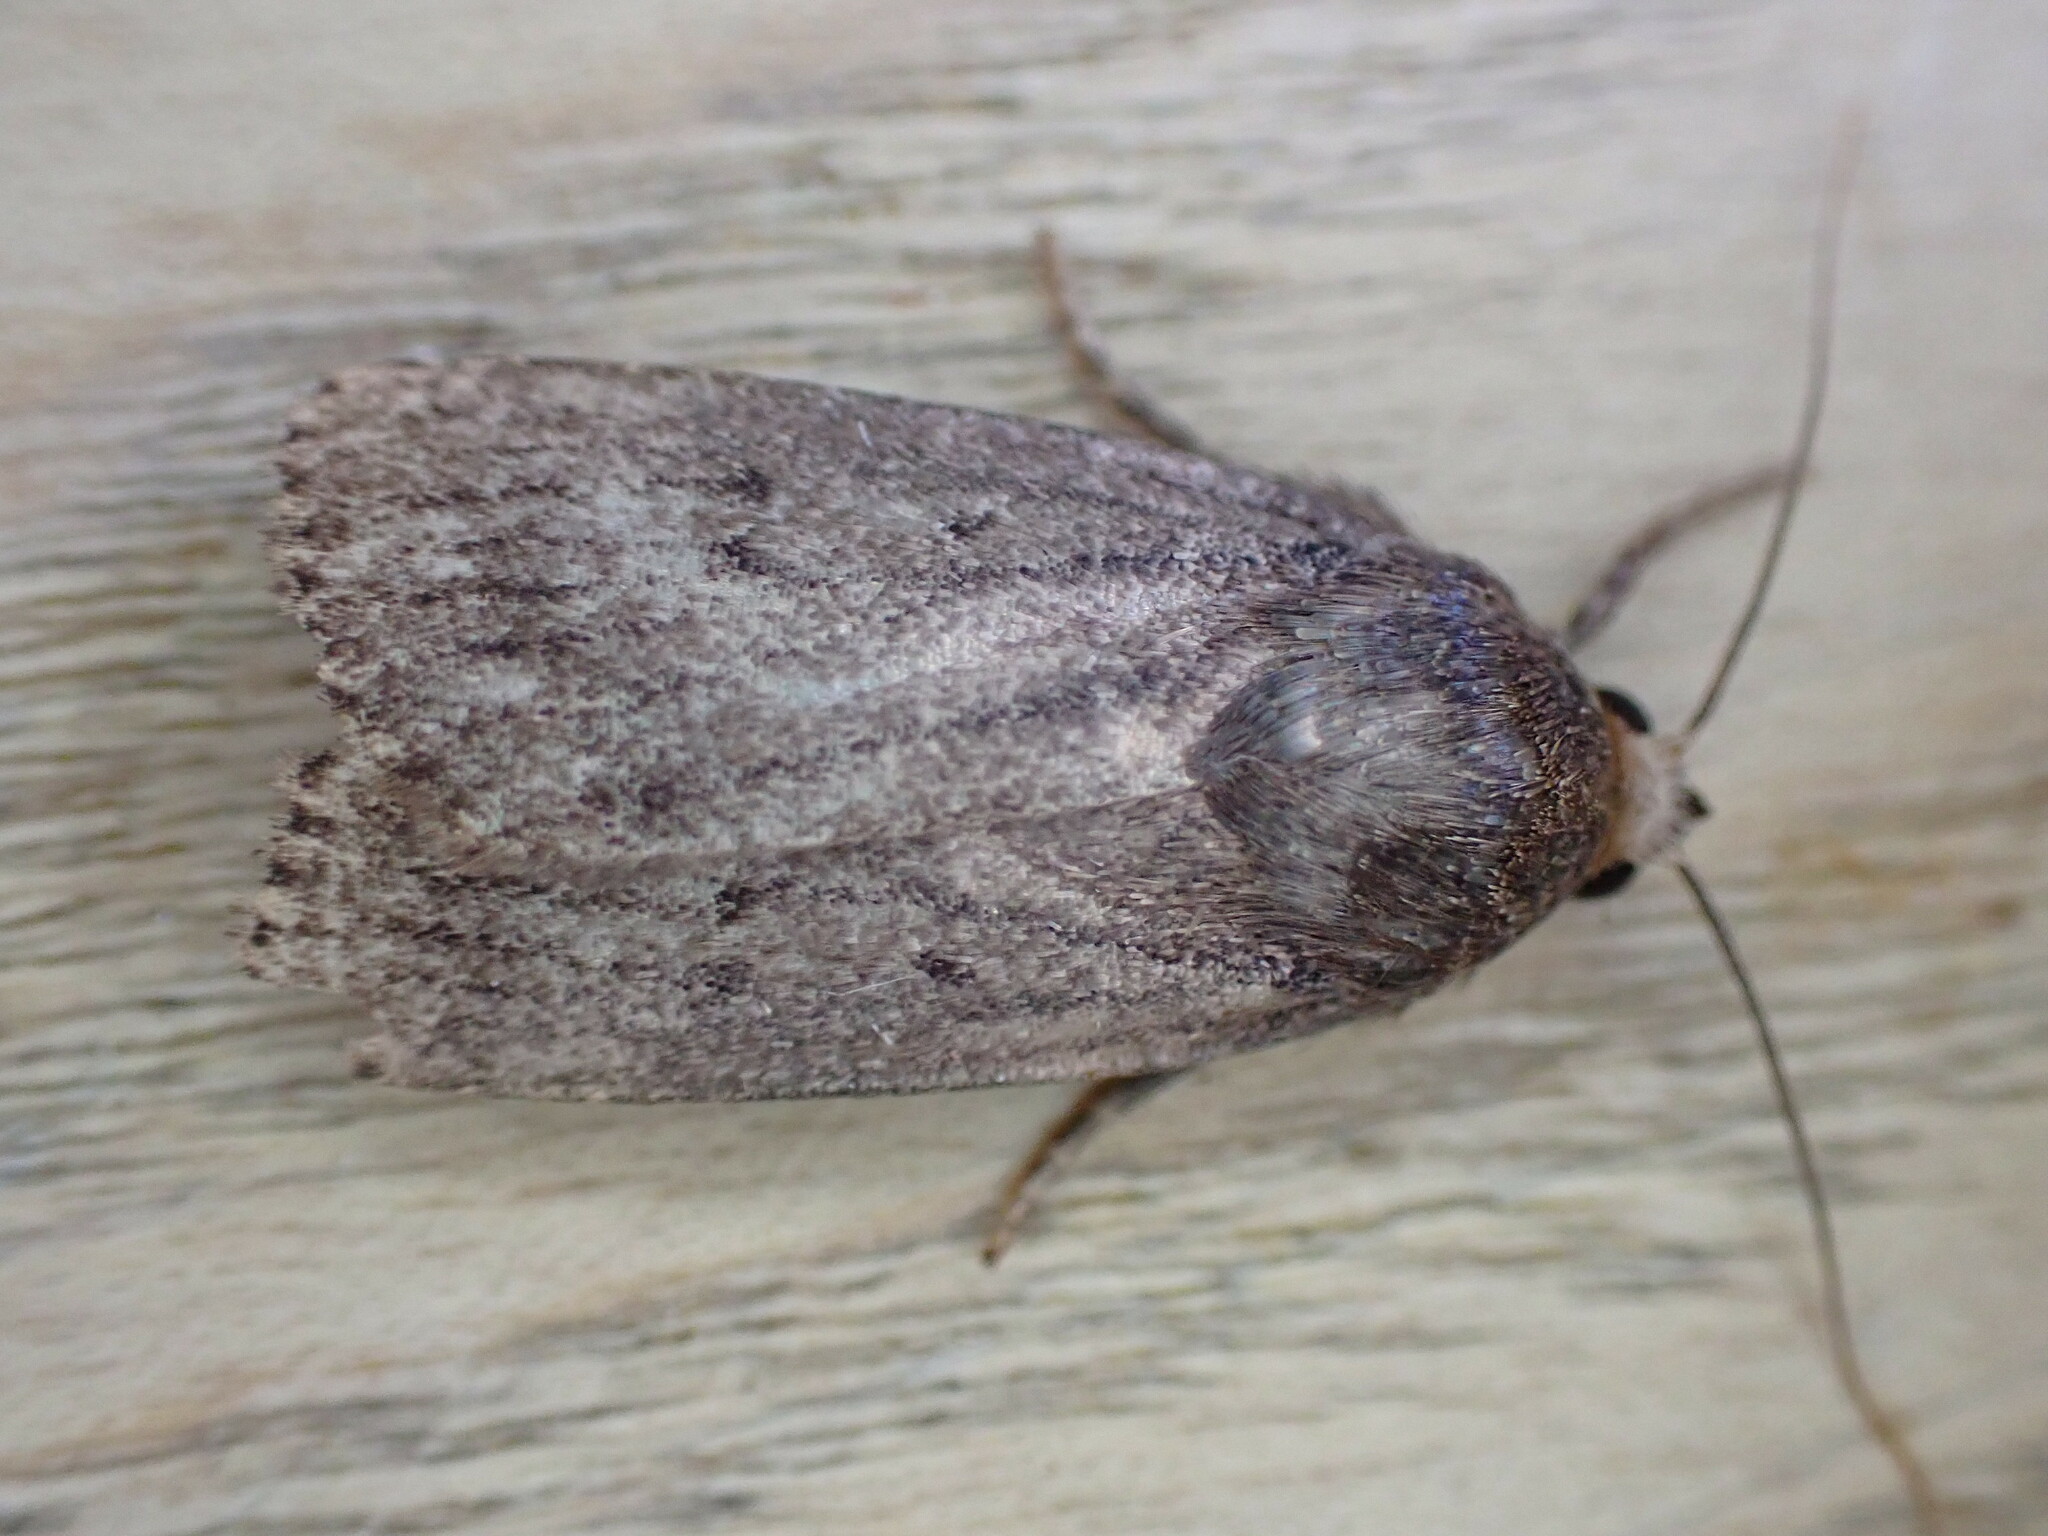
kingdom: Animalia
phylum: Arthropoda
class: Insecta
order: Lepidoptera
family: Noctuidae
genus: Amphipyra
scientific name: Amphipyra tragopoginis
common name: Mouse moth
